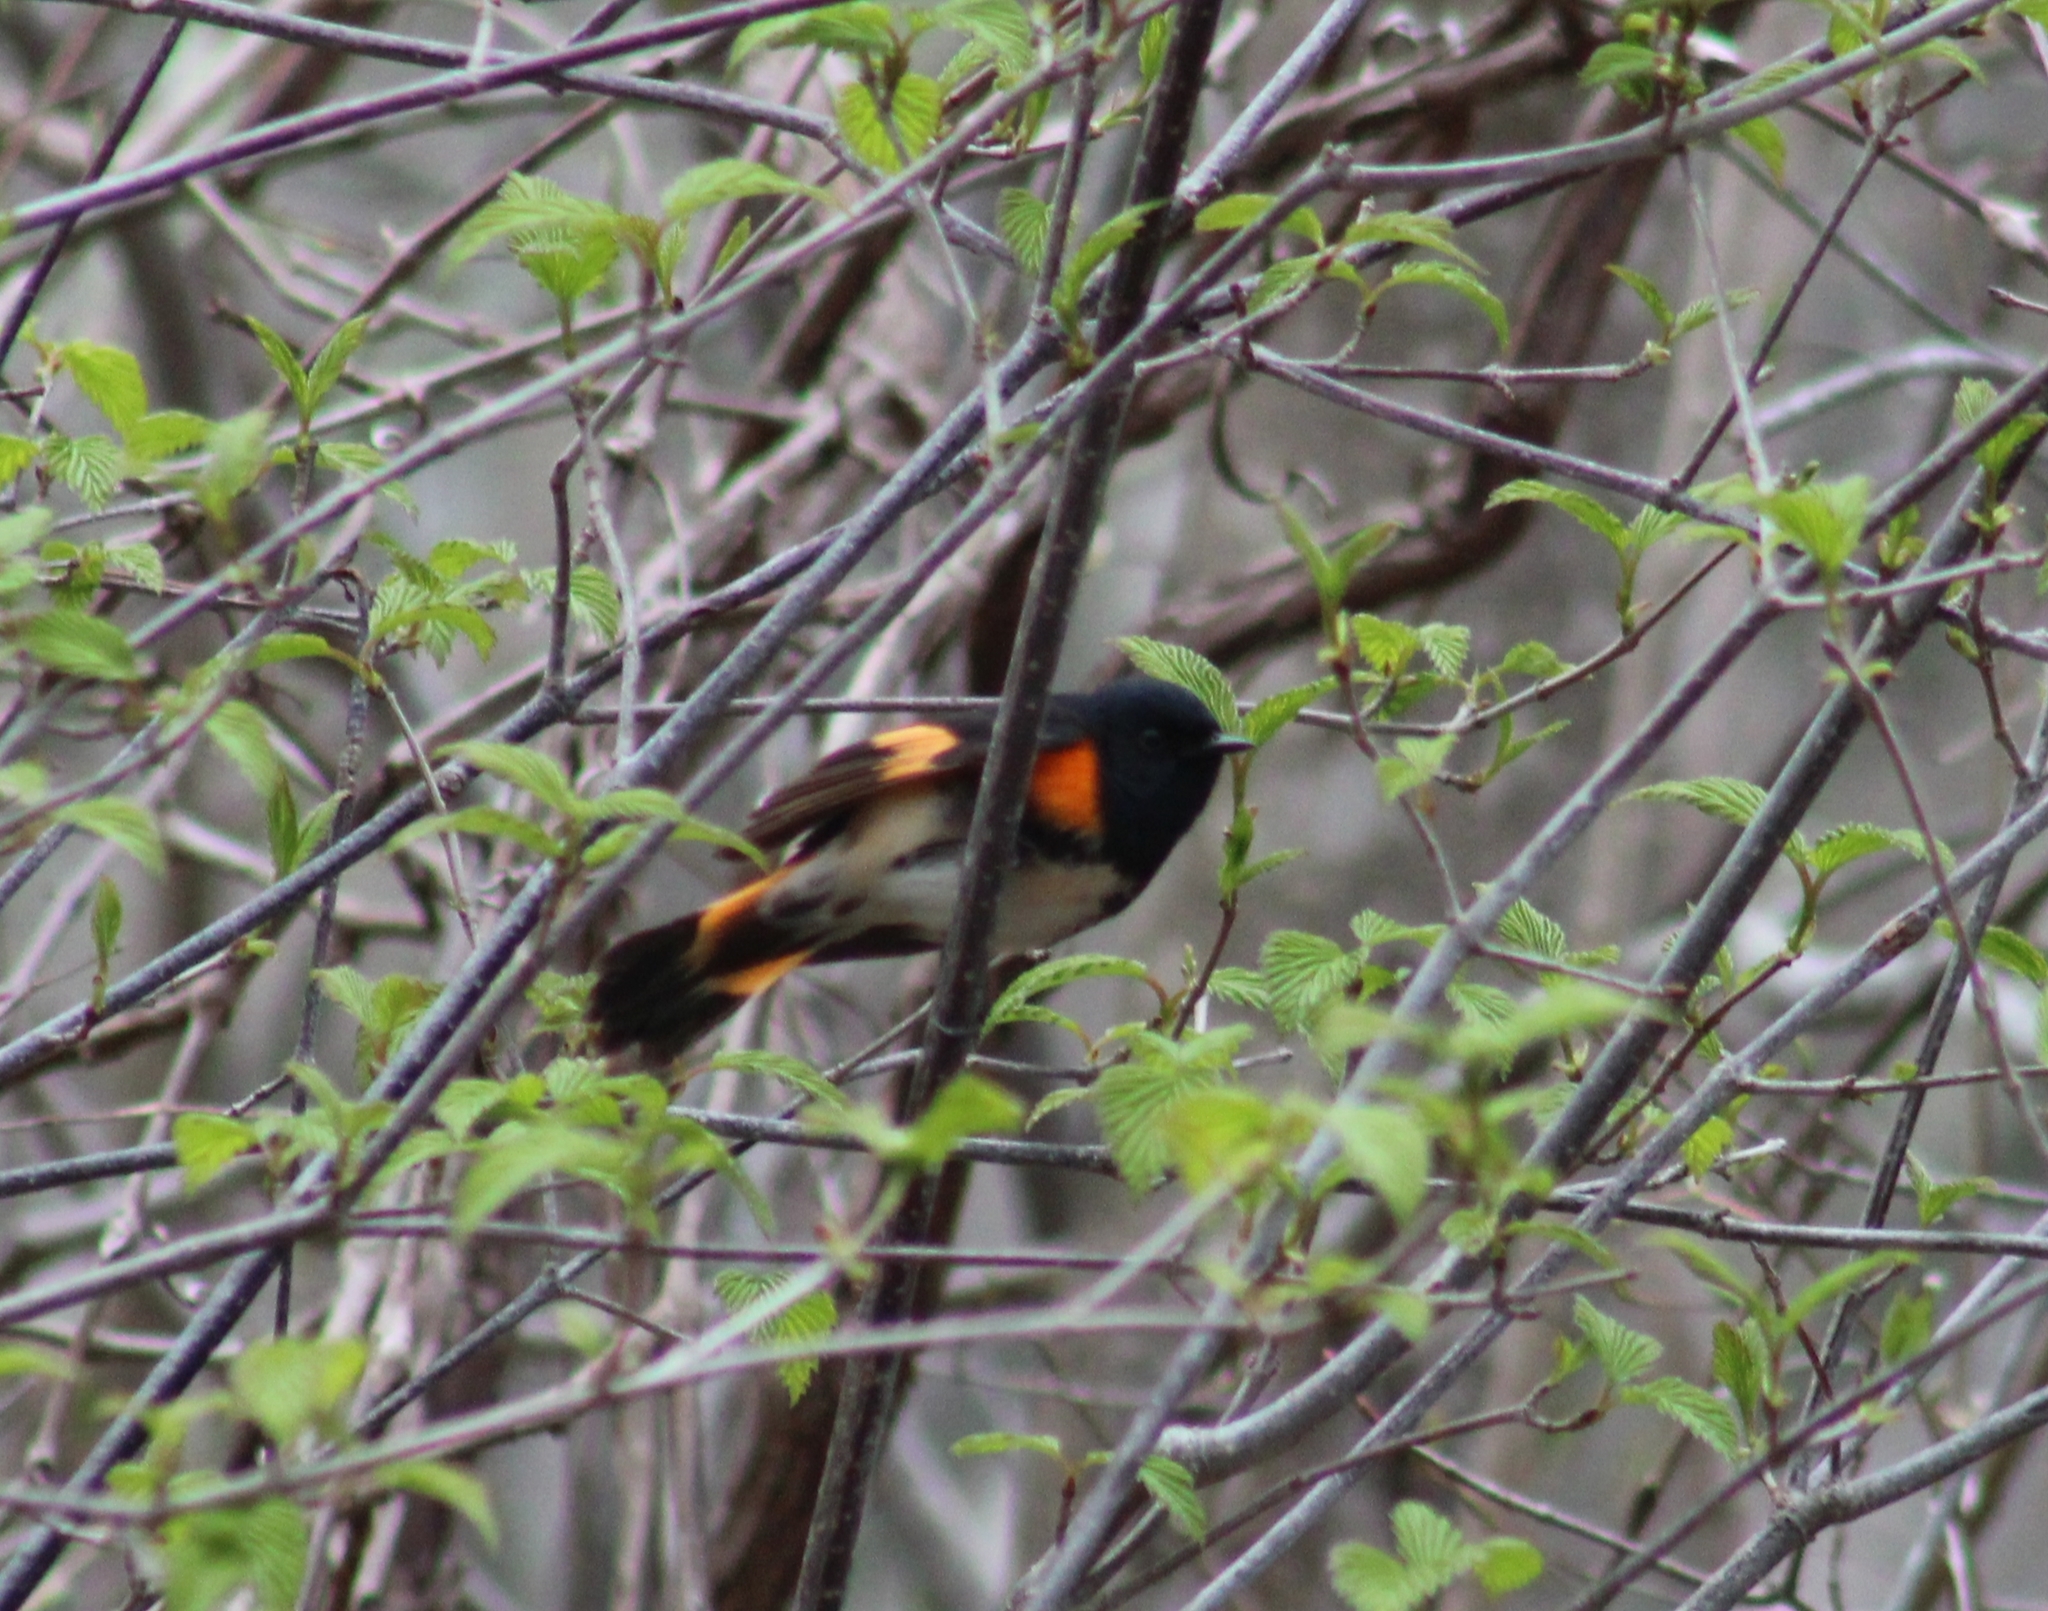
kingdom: Animalia
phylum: Chordata
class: Aves
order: Passeriformes
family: Parulidae
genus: Setophaga
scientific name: Setophaga ruticilla
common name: American redstart
